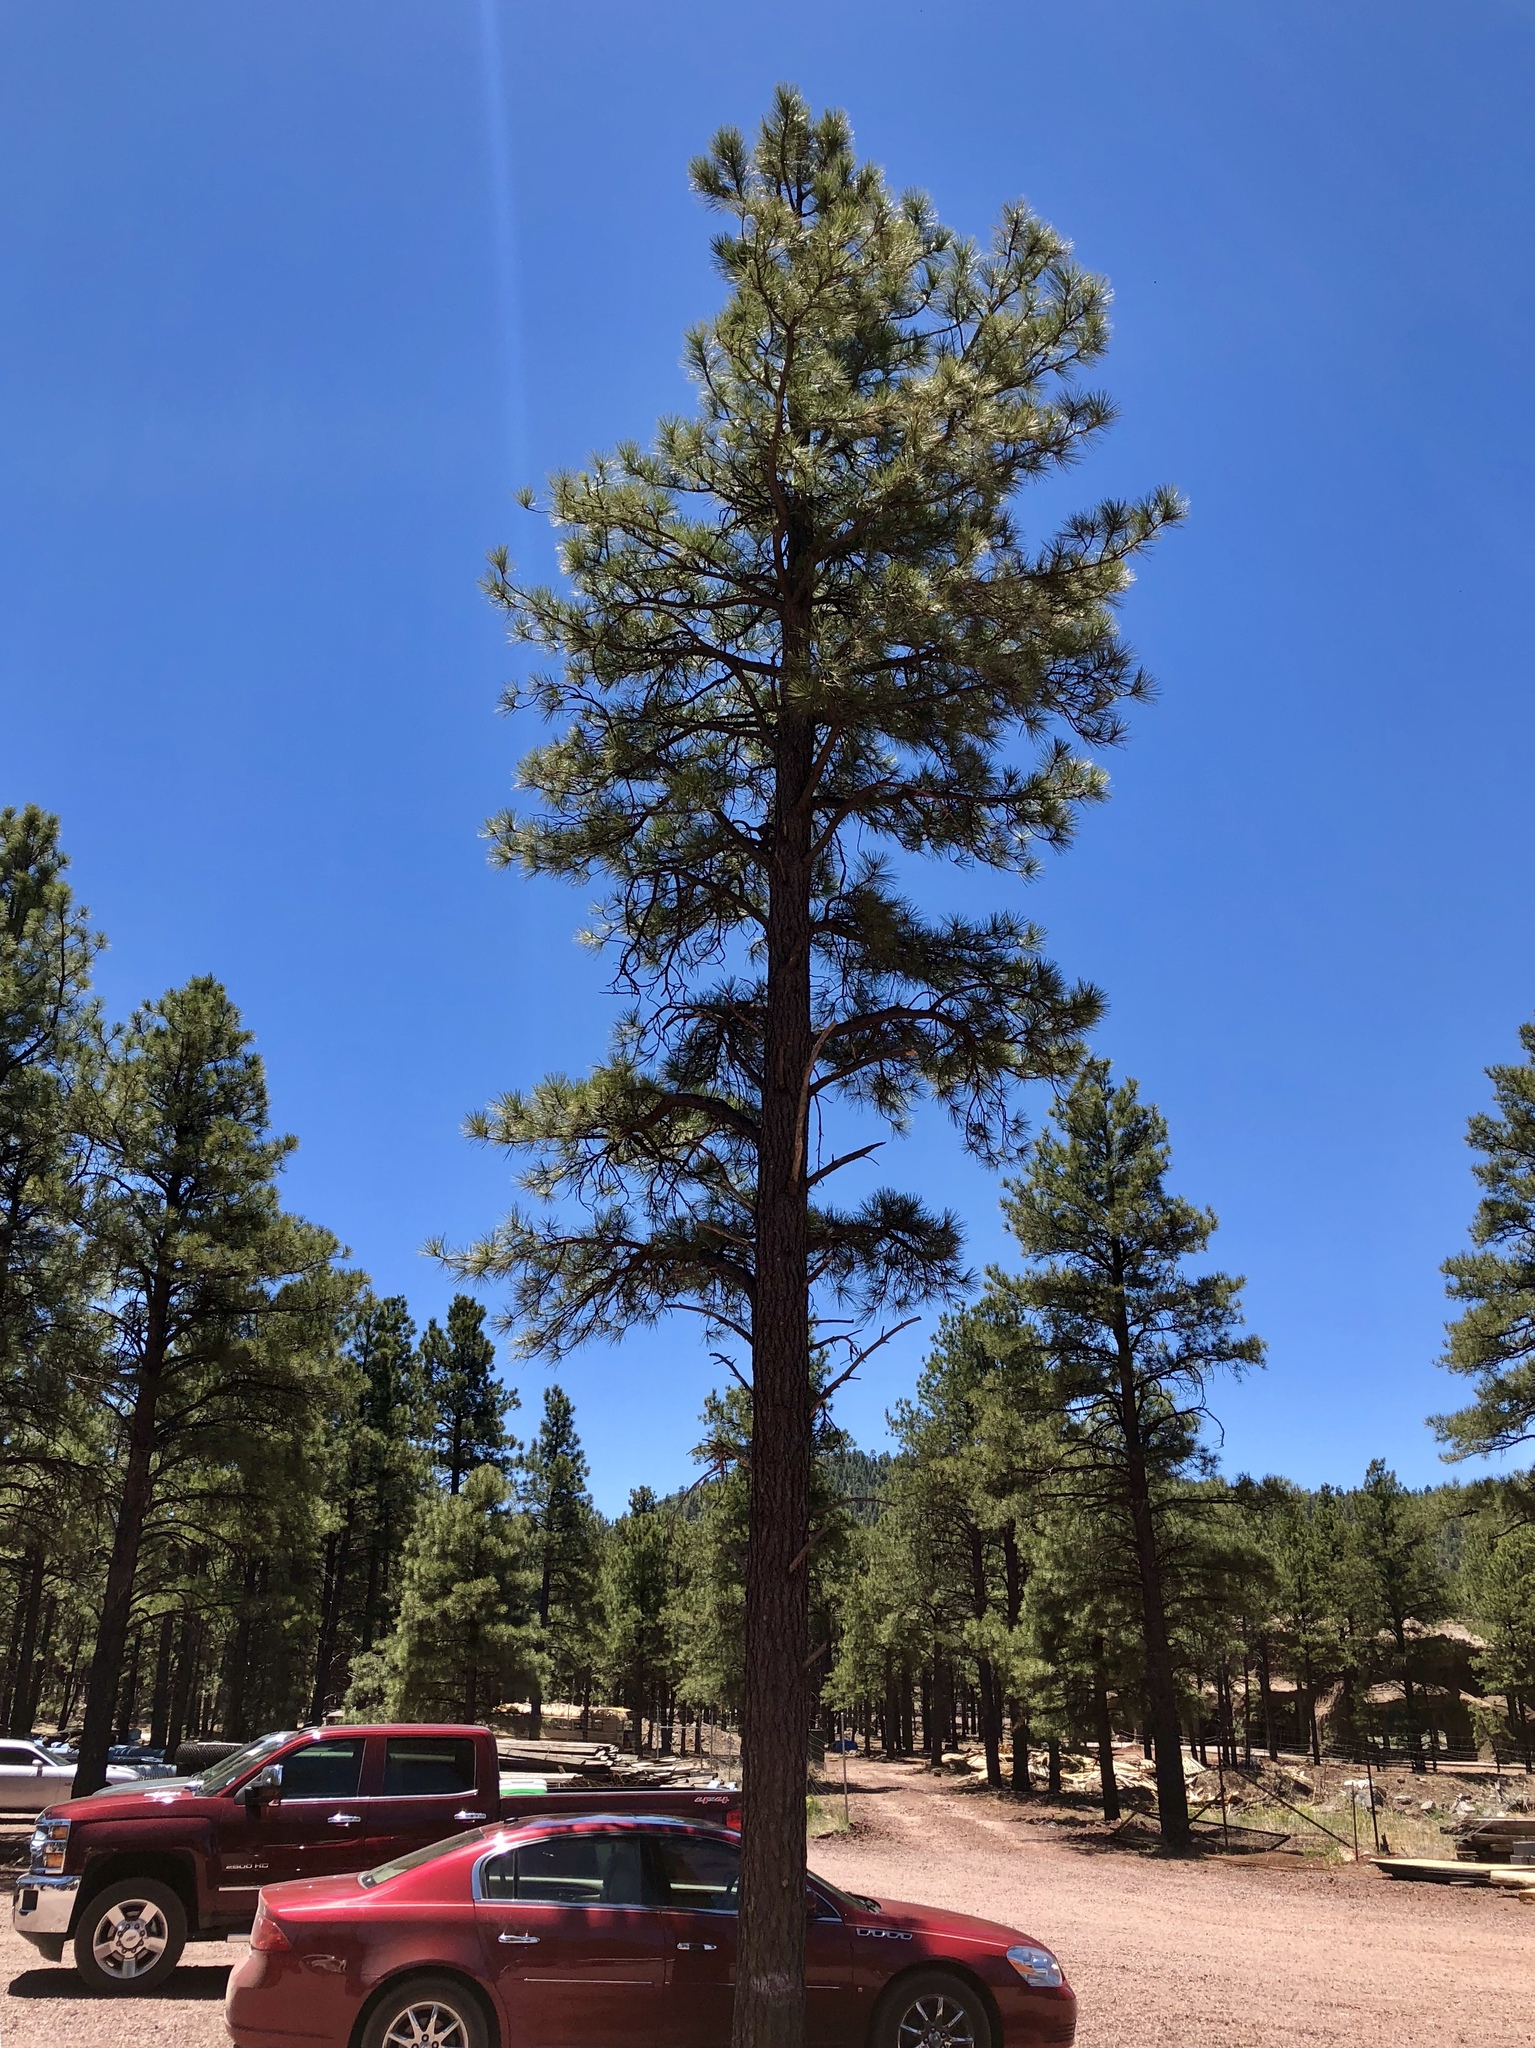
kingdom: Plantae
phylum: Tracheophyta
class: Pinopsida
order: Pinales
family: Pinaceae
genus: Pinus
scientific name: Pinus ponderosa
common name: Western yellow-pine
